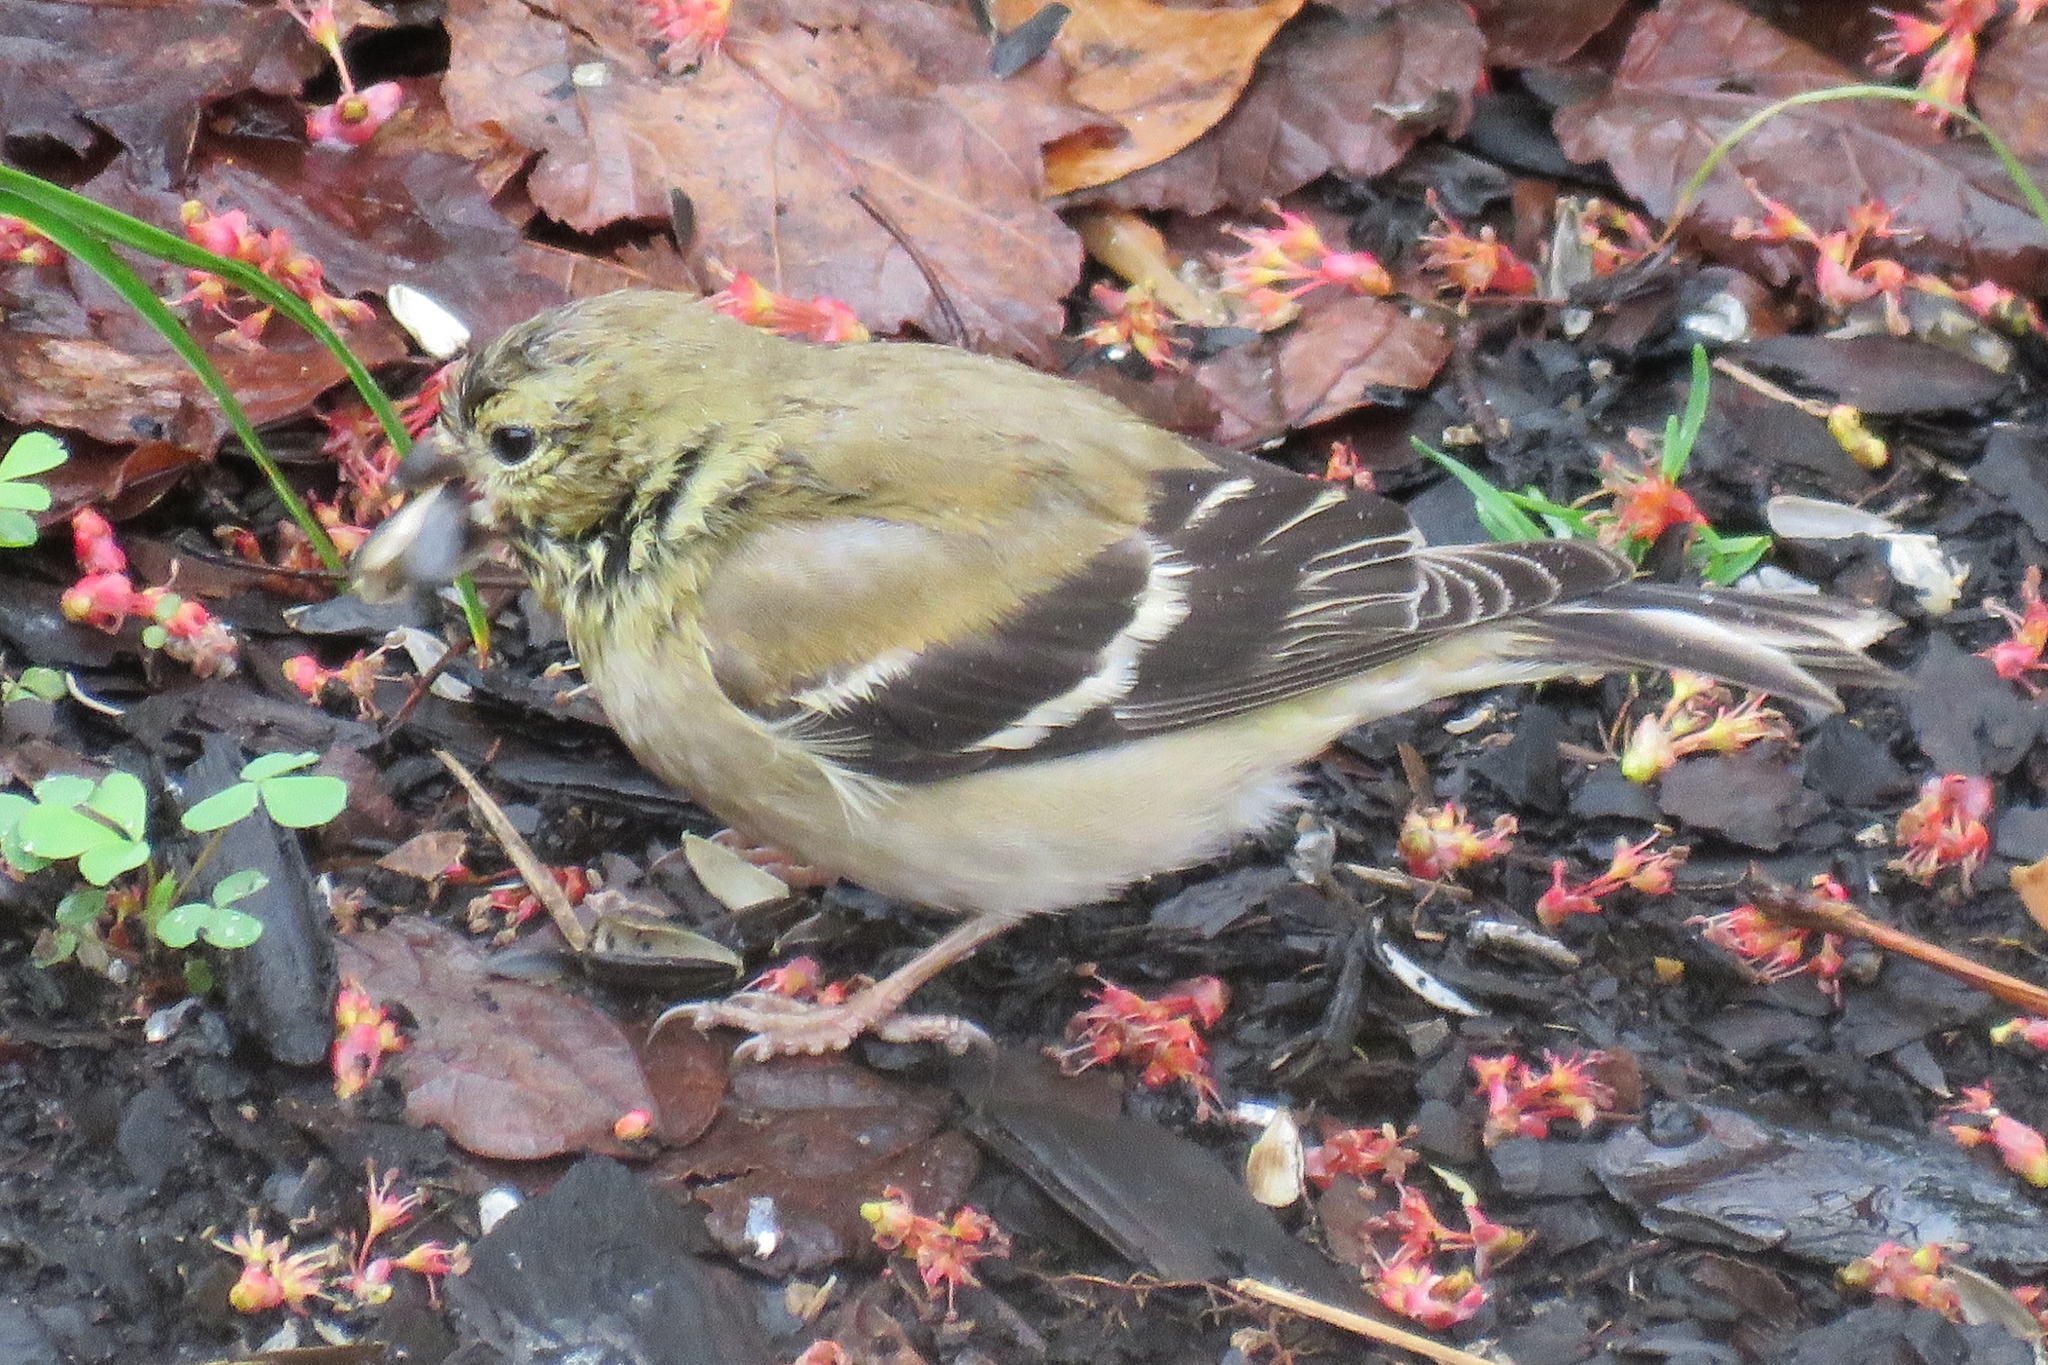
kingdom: Animalia
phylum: Chordata
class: Aves
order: Passeriformes
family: Fringillidae
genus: Spinus
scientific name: Spinus tristis
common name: American goldfinch
